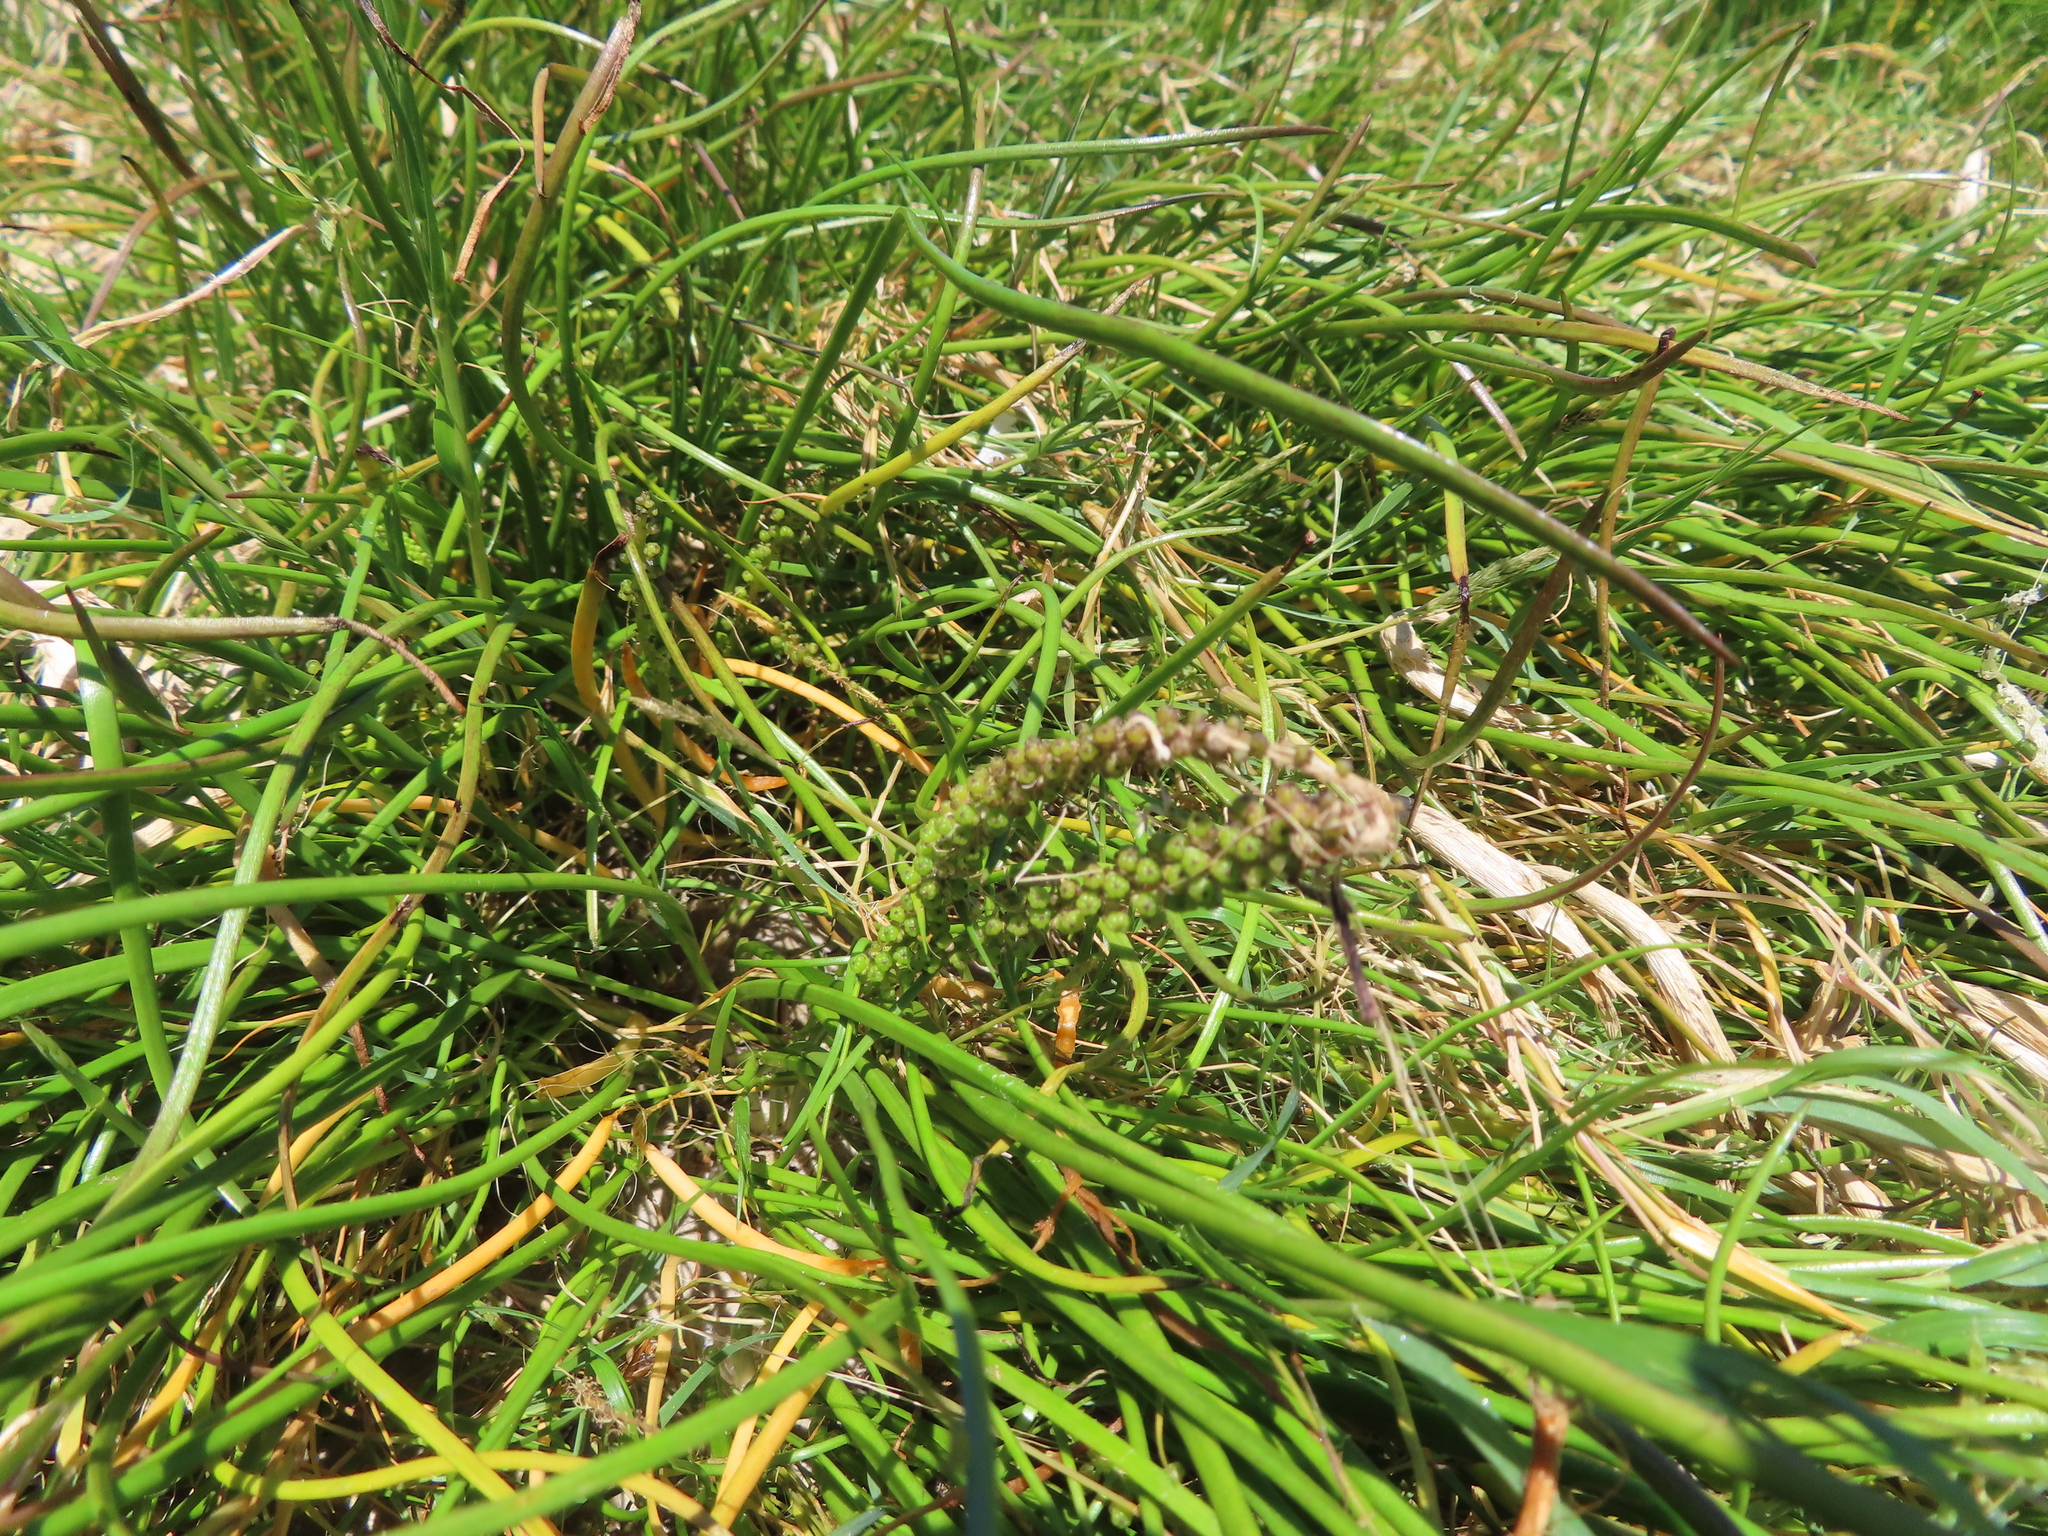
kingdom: Plantae
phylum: Tracheophyta
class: Liliopsida
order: Alismatales
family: Juncaginaceae
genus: Triglochin
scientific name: Triglochin striata
